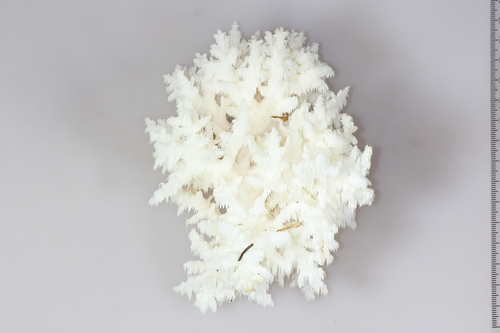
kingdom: Fungi
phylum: Basidiomycota
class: Agaricomycetes
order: Russulales
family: Hericiaceae
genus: Hericium
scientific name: Hericium coralloides
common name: Coral tooth
